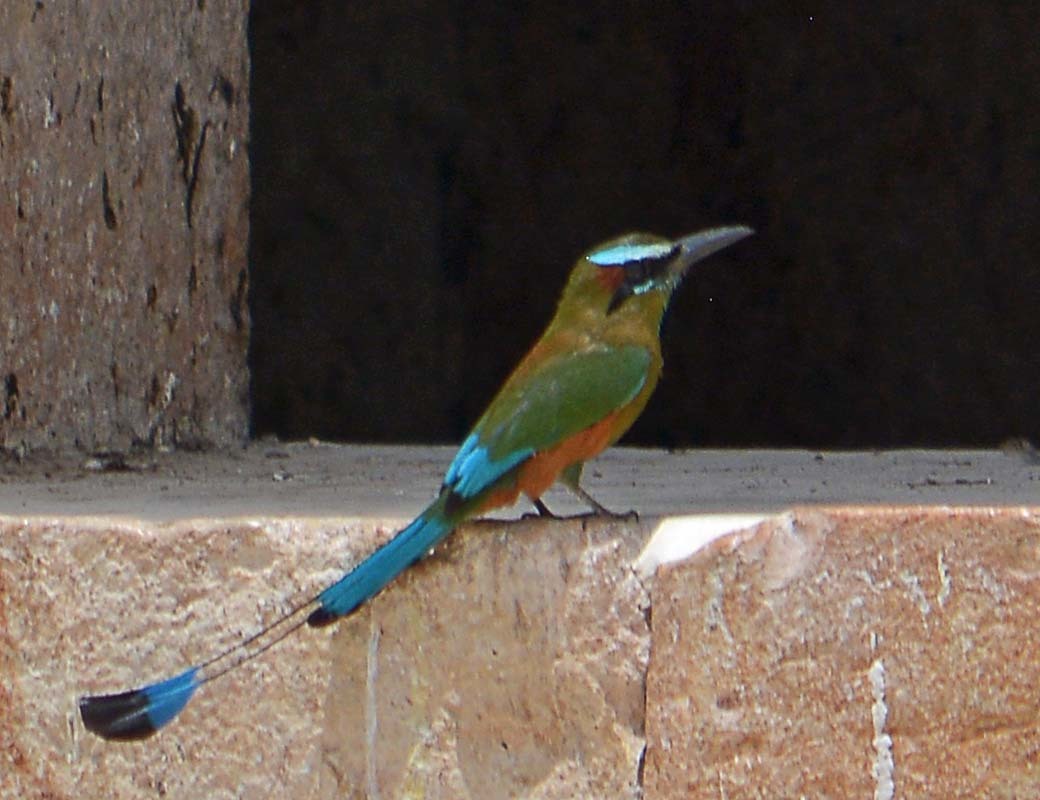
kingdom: Animalia
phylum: Chordata
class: Aves
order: Coraciiformes
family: Momotidae
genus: Eumomota
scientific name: Eumomota superciliosa
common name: Turquoise-browed motmot
